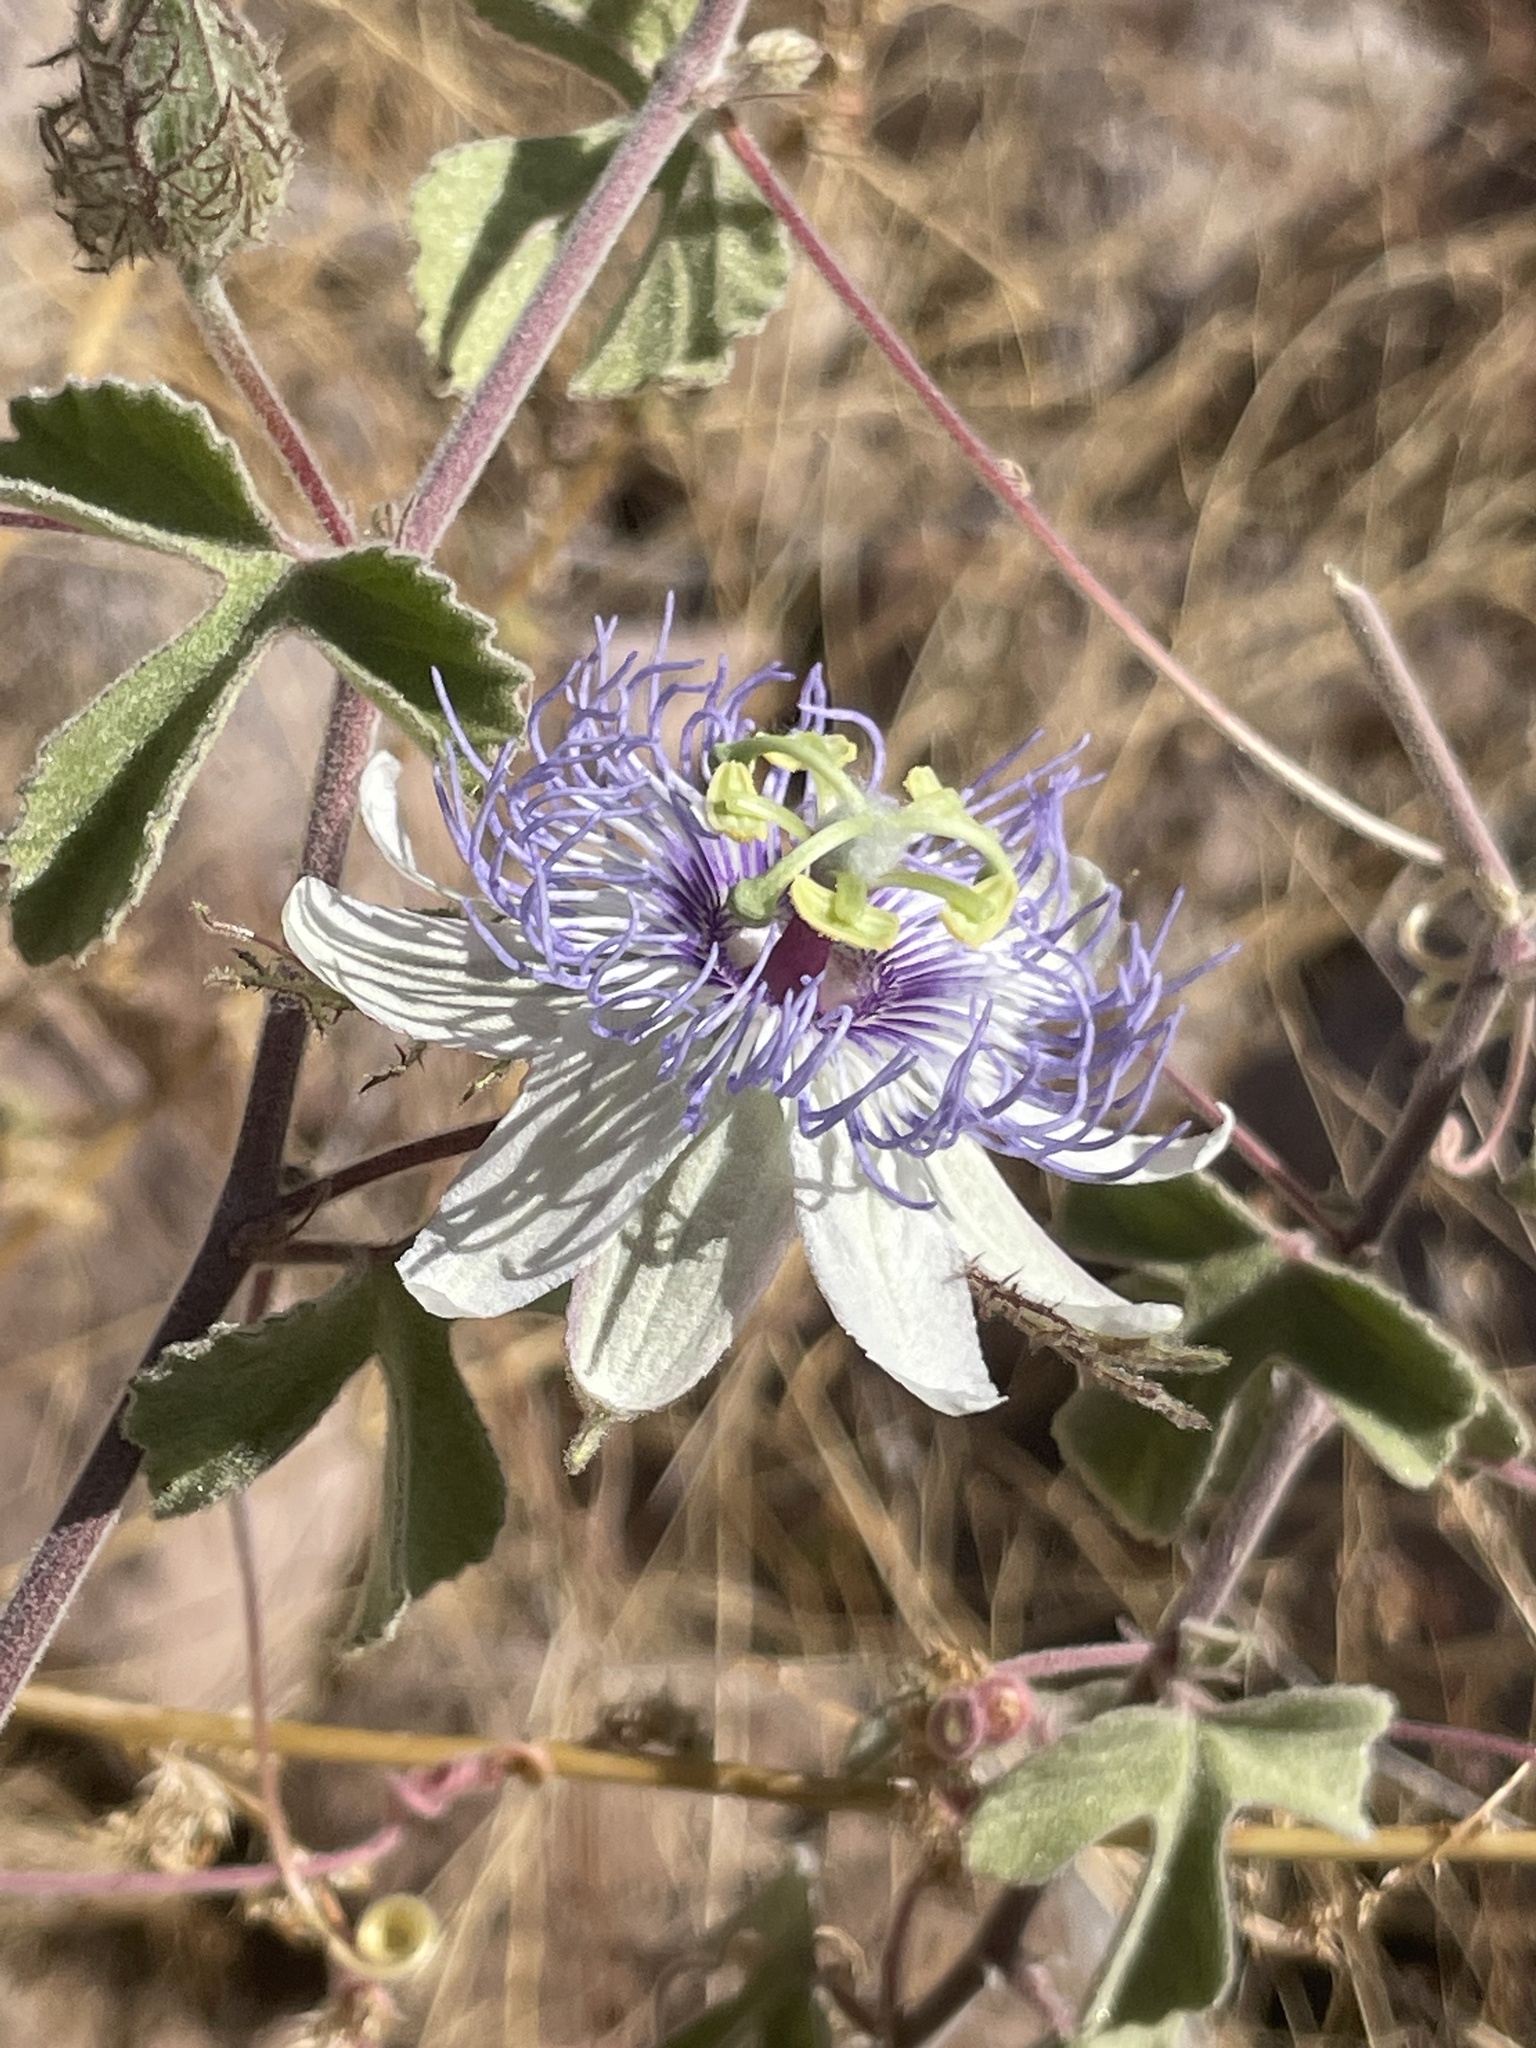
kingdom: Plantae
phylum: Tracheophyta
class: Magnoliopsida
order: Malpighiales
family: Passifloraceae
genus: Passiflora
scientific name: Passiflora arida
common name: Desert passionflower
